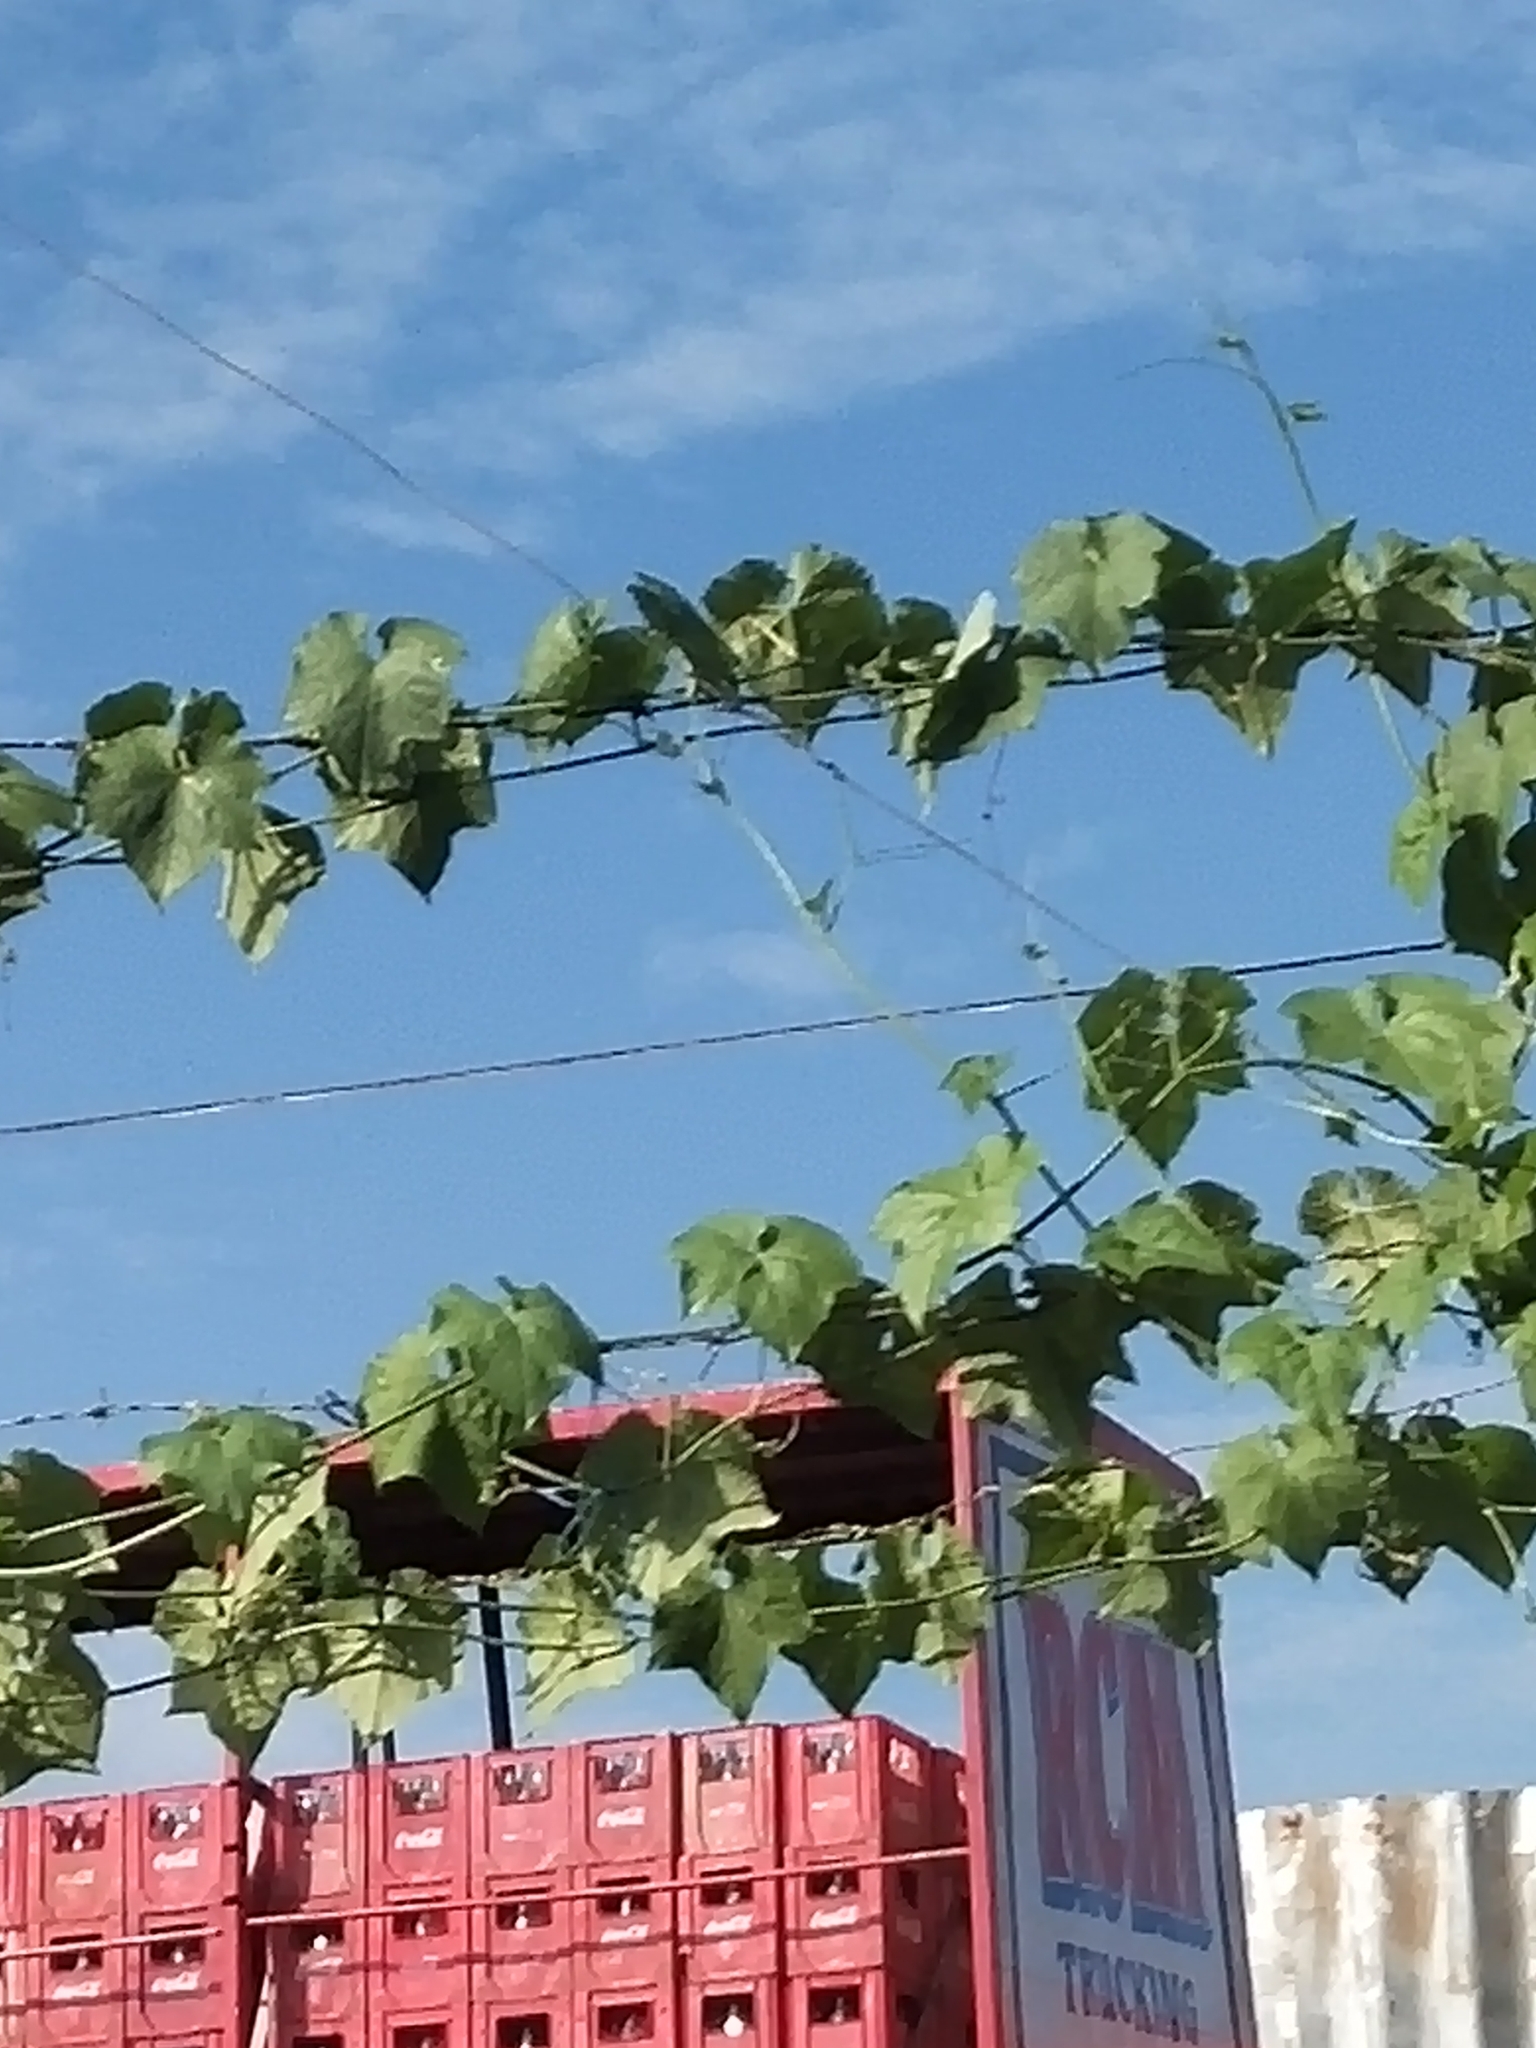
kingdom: Plantae
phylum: Tracheophyta
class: Magnoliopsida
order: Cucurbitales
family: Cucurbitaceae
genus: Luffa
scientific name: Luffa aegyptiaca
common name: Sponge gourd
